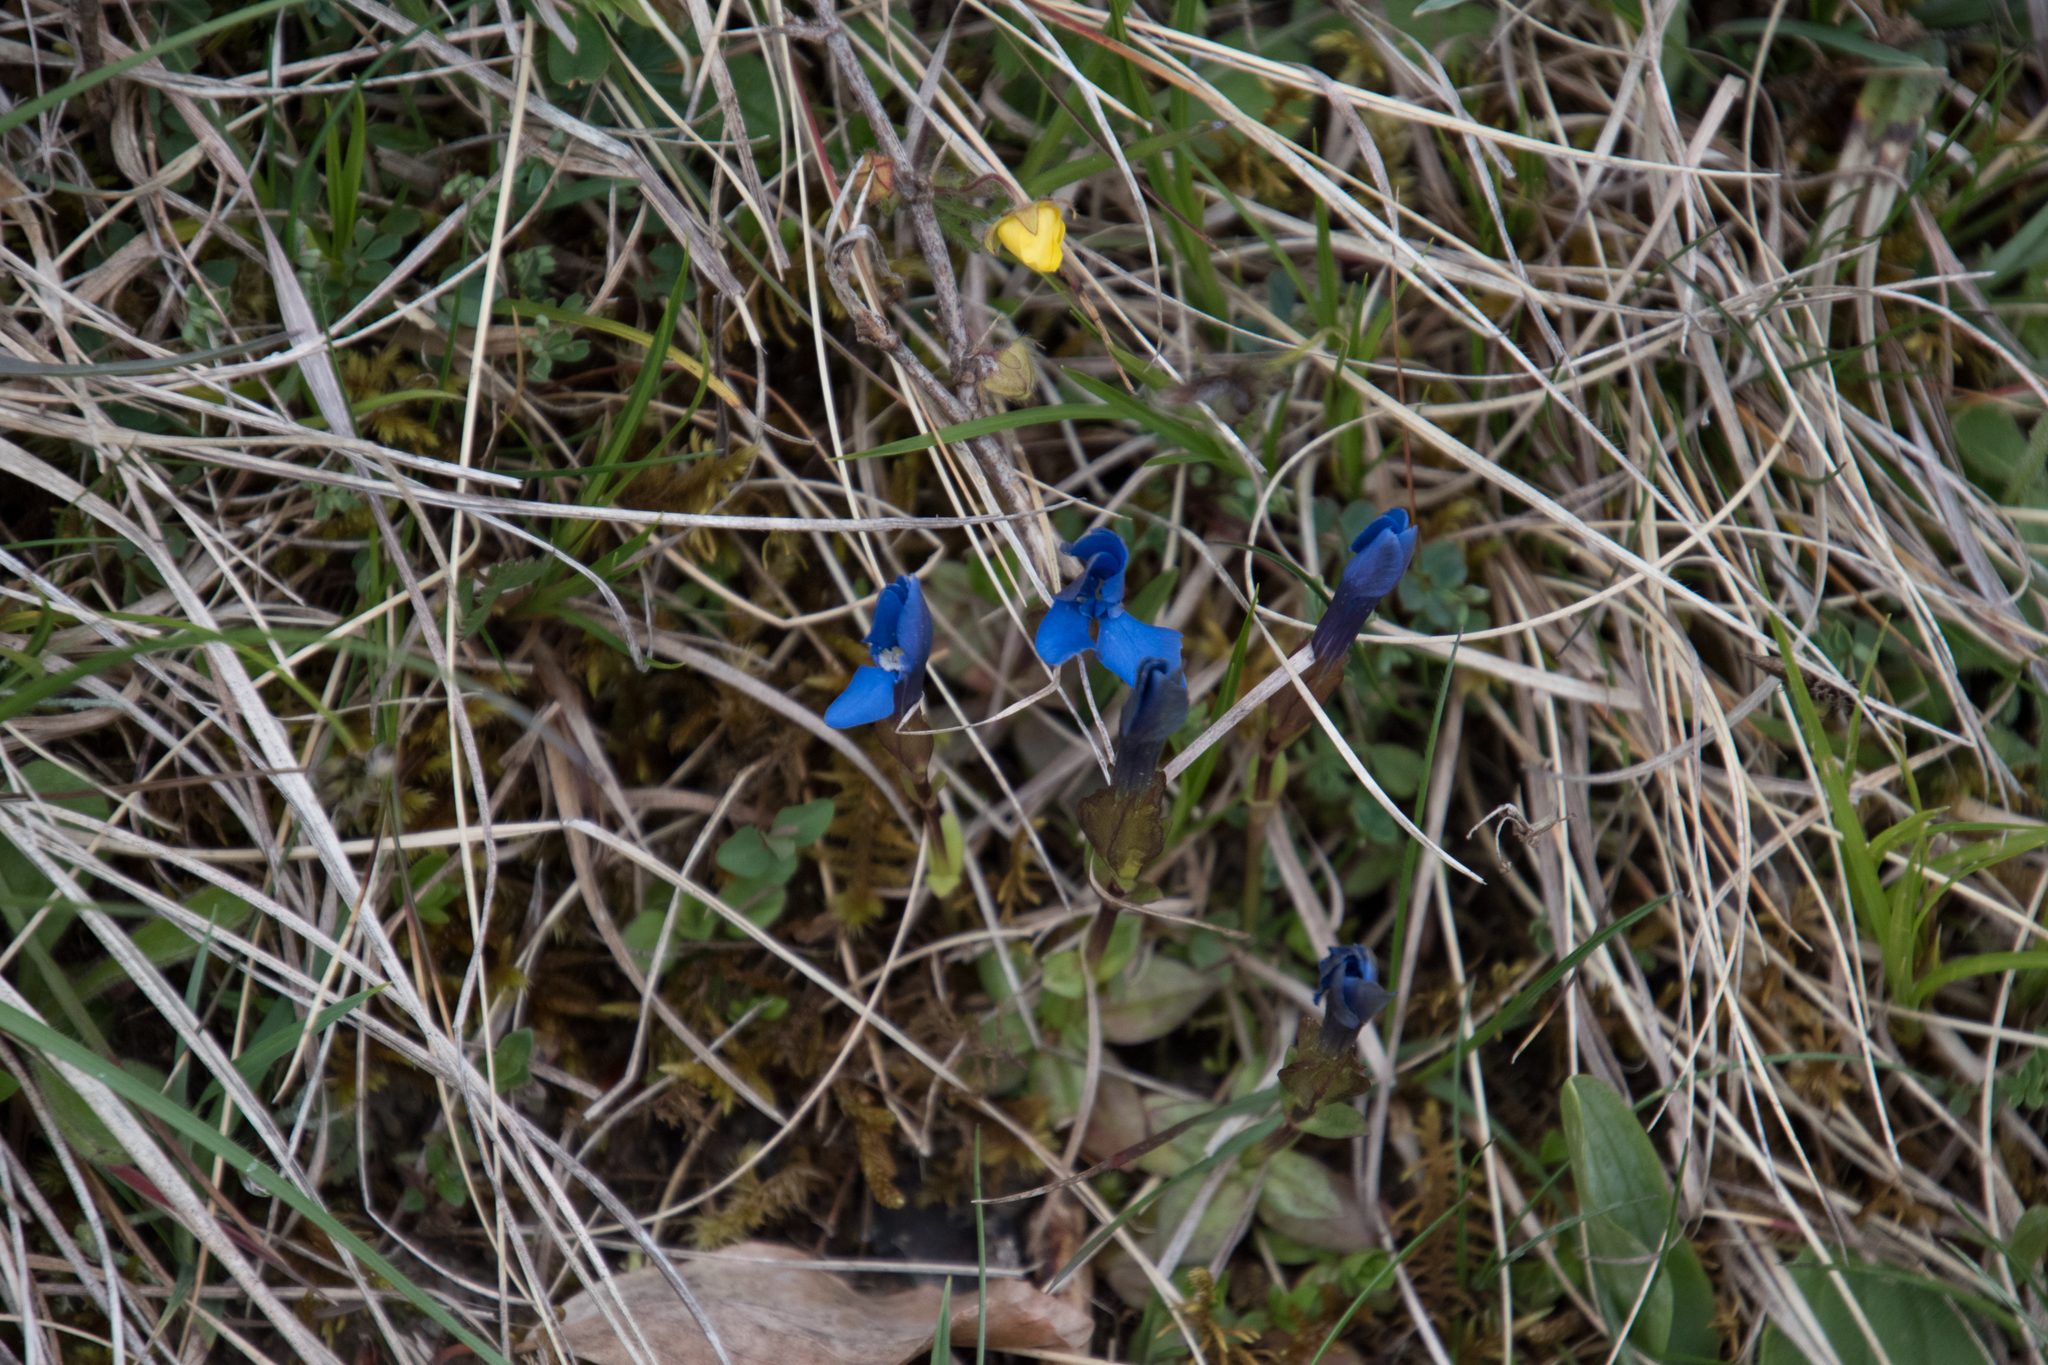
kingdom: Plantae
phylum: Tracheophyta
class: Magnoliopsida
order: Gentianales
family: Gentianaceae
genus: Gentiana
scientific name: Gentiana verna
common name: Spring gentian
